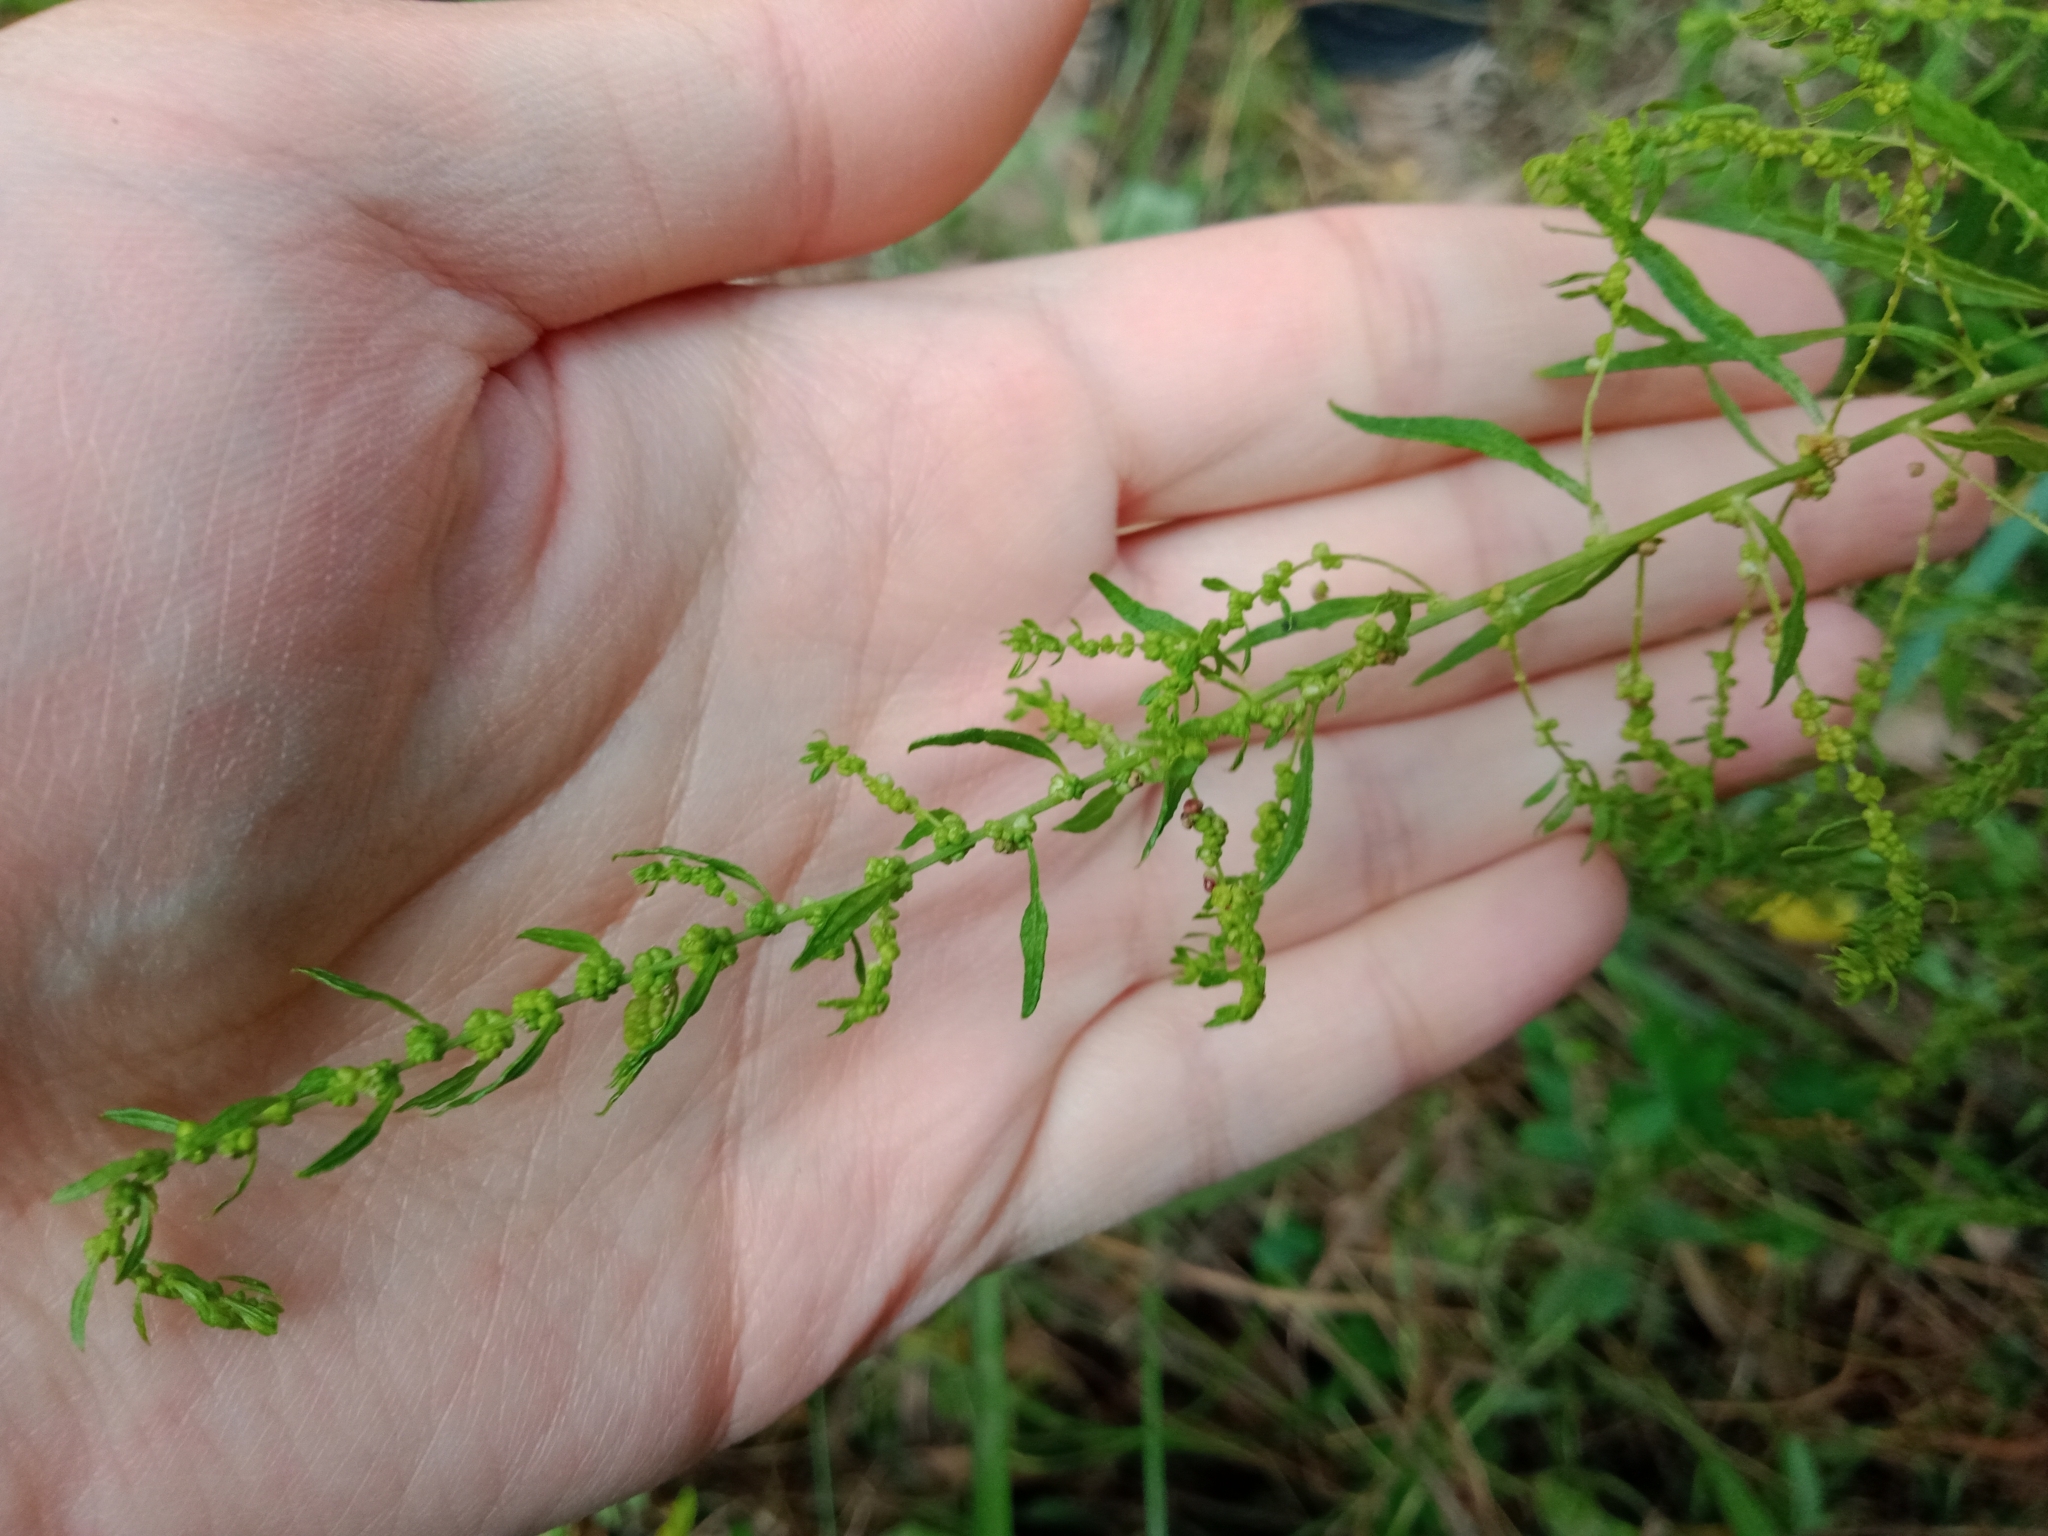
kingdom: Plantae
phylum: Tracheophyta
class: Magnoliopsida
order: Caryophyllales
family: Amaranthaceae
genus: Dysphania
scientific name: Dysphania ambrosioides
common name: Wormseed
